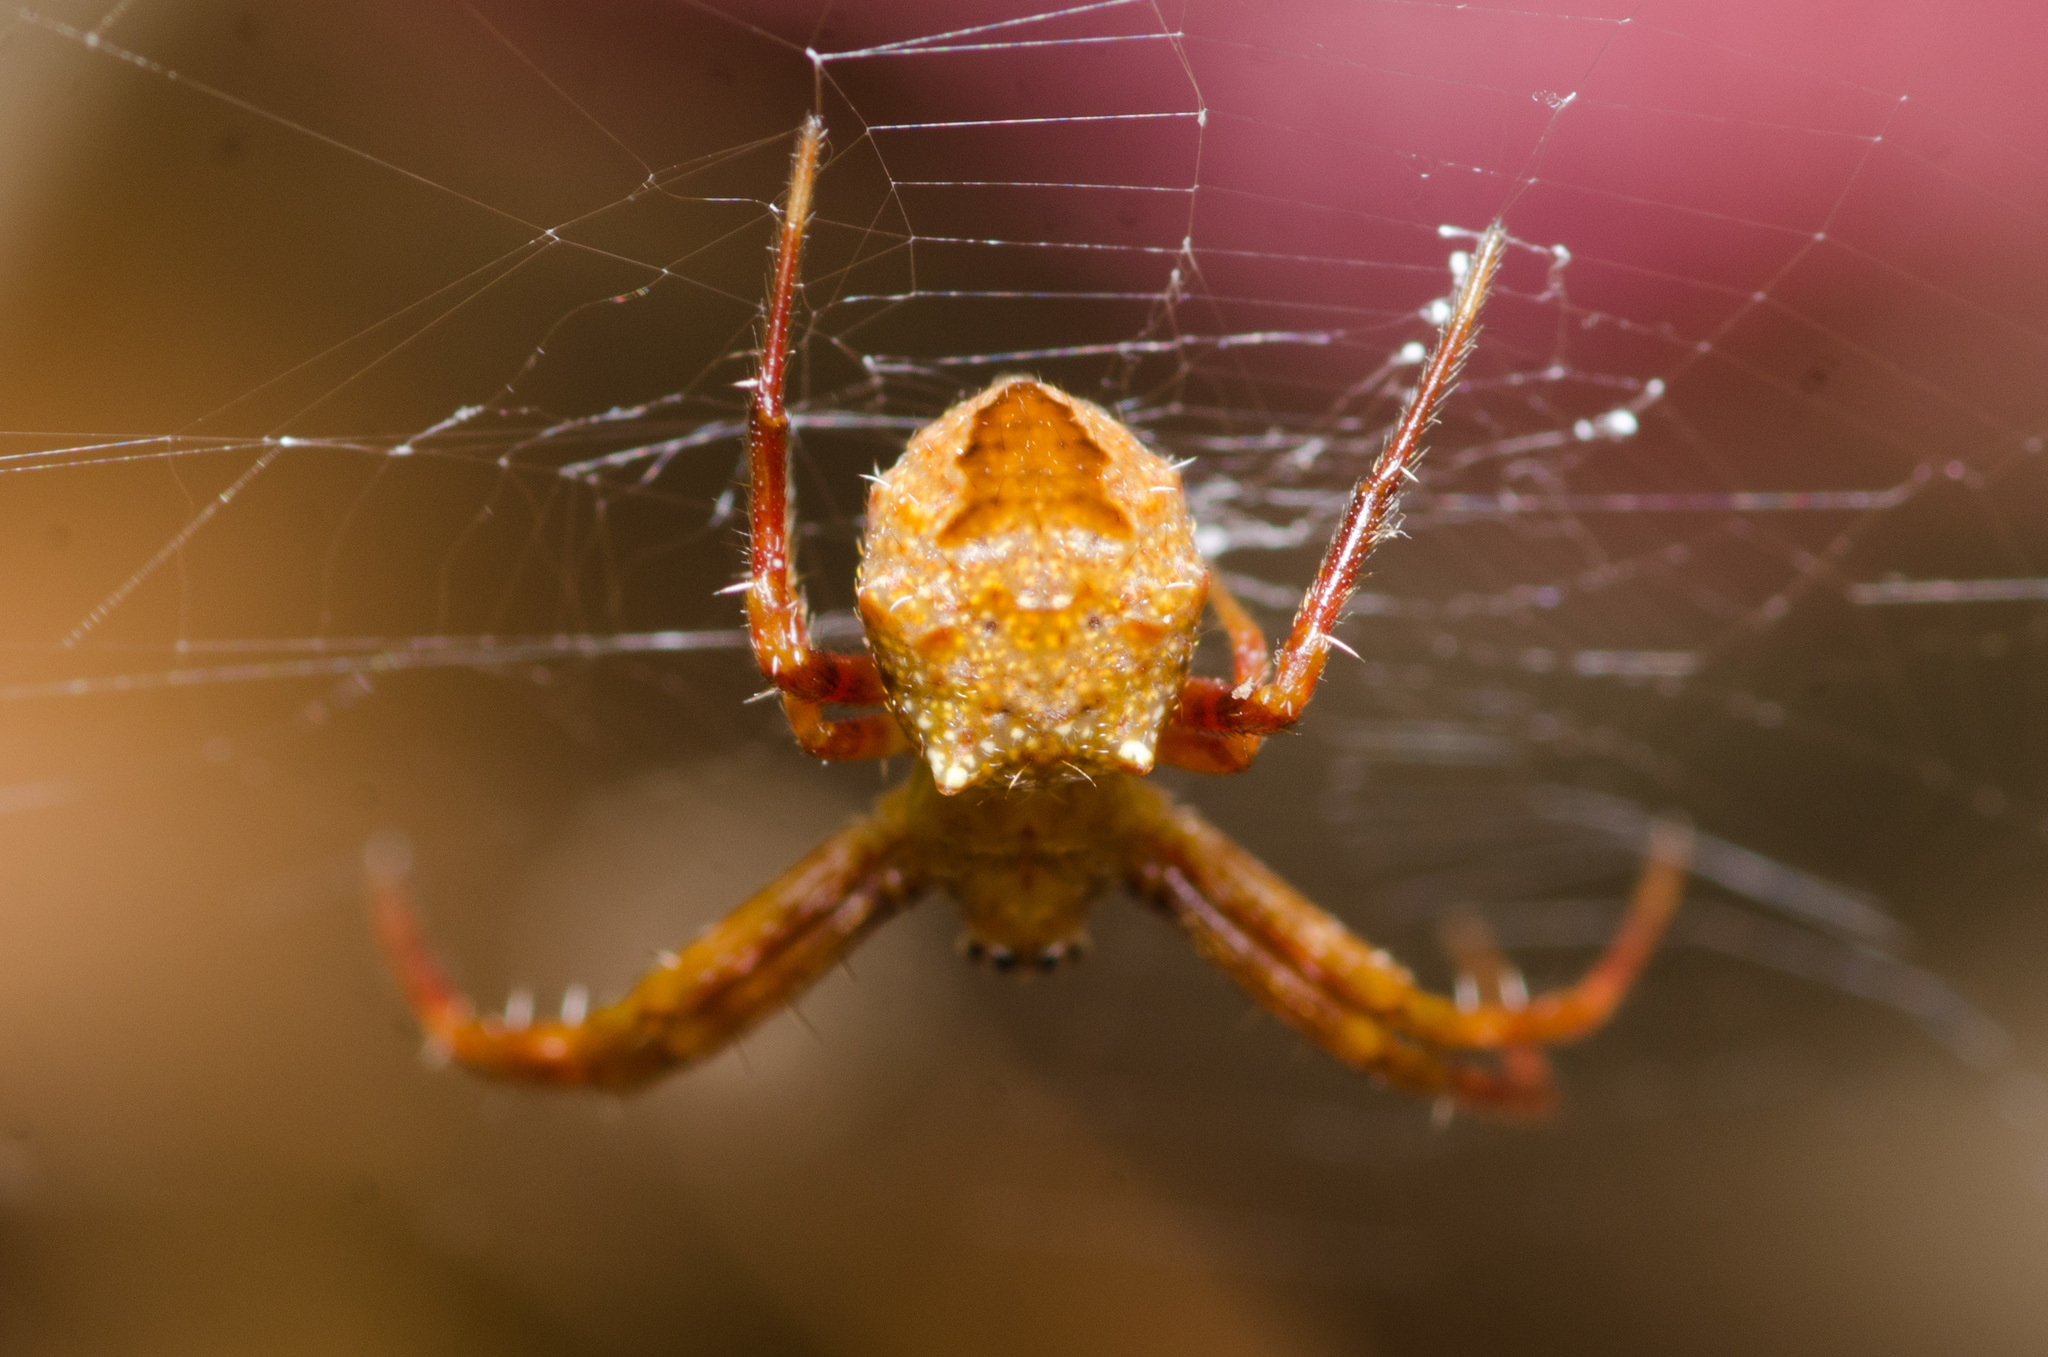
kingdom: Animalia
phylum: Arthropoda
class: Arachnida
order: Araneae
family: Araneidae
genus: Gea
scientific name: Gea heptagon
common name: Orb weavers
